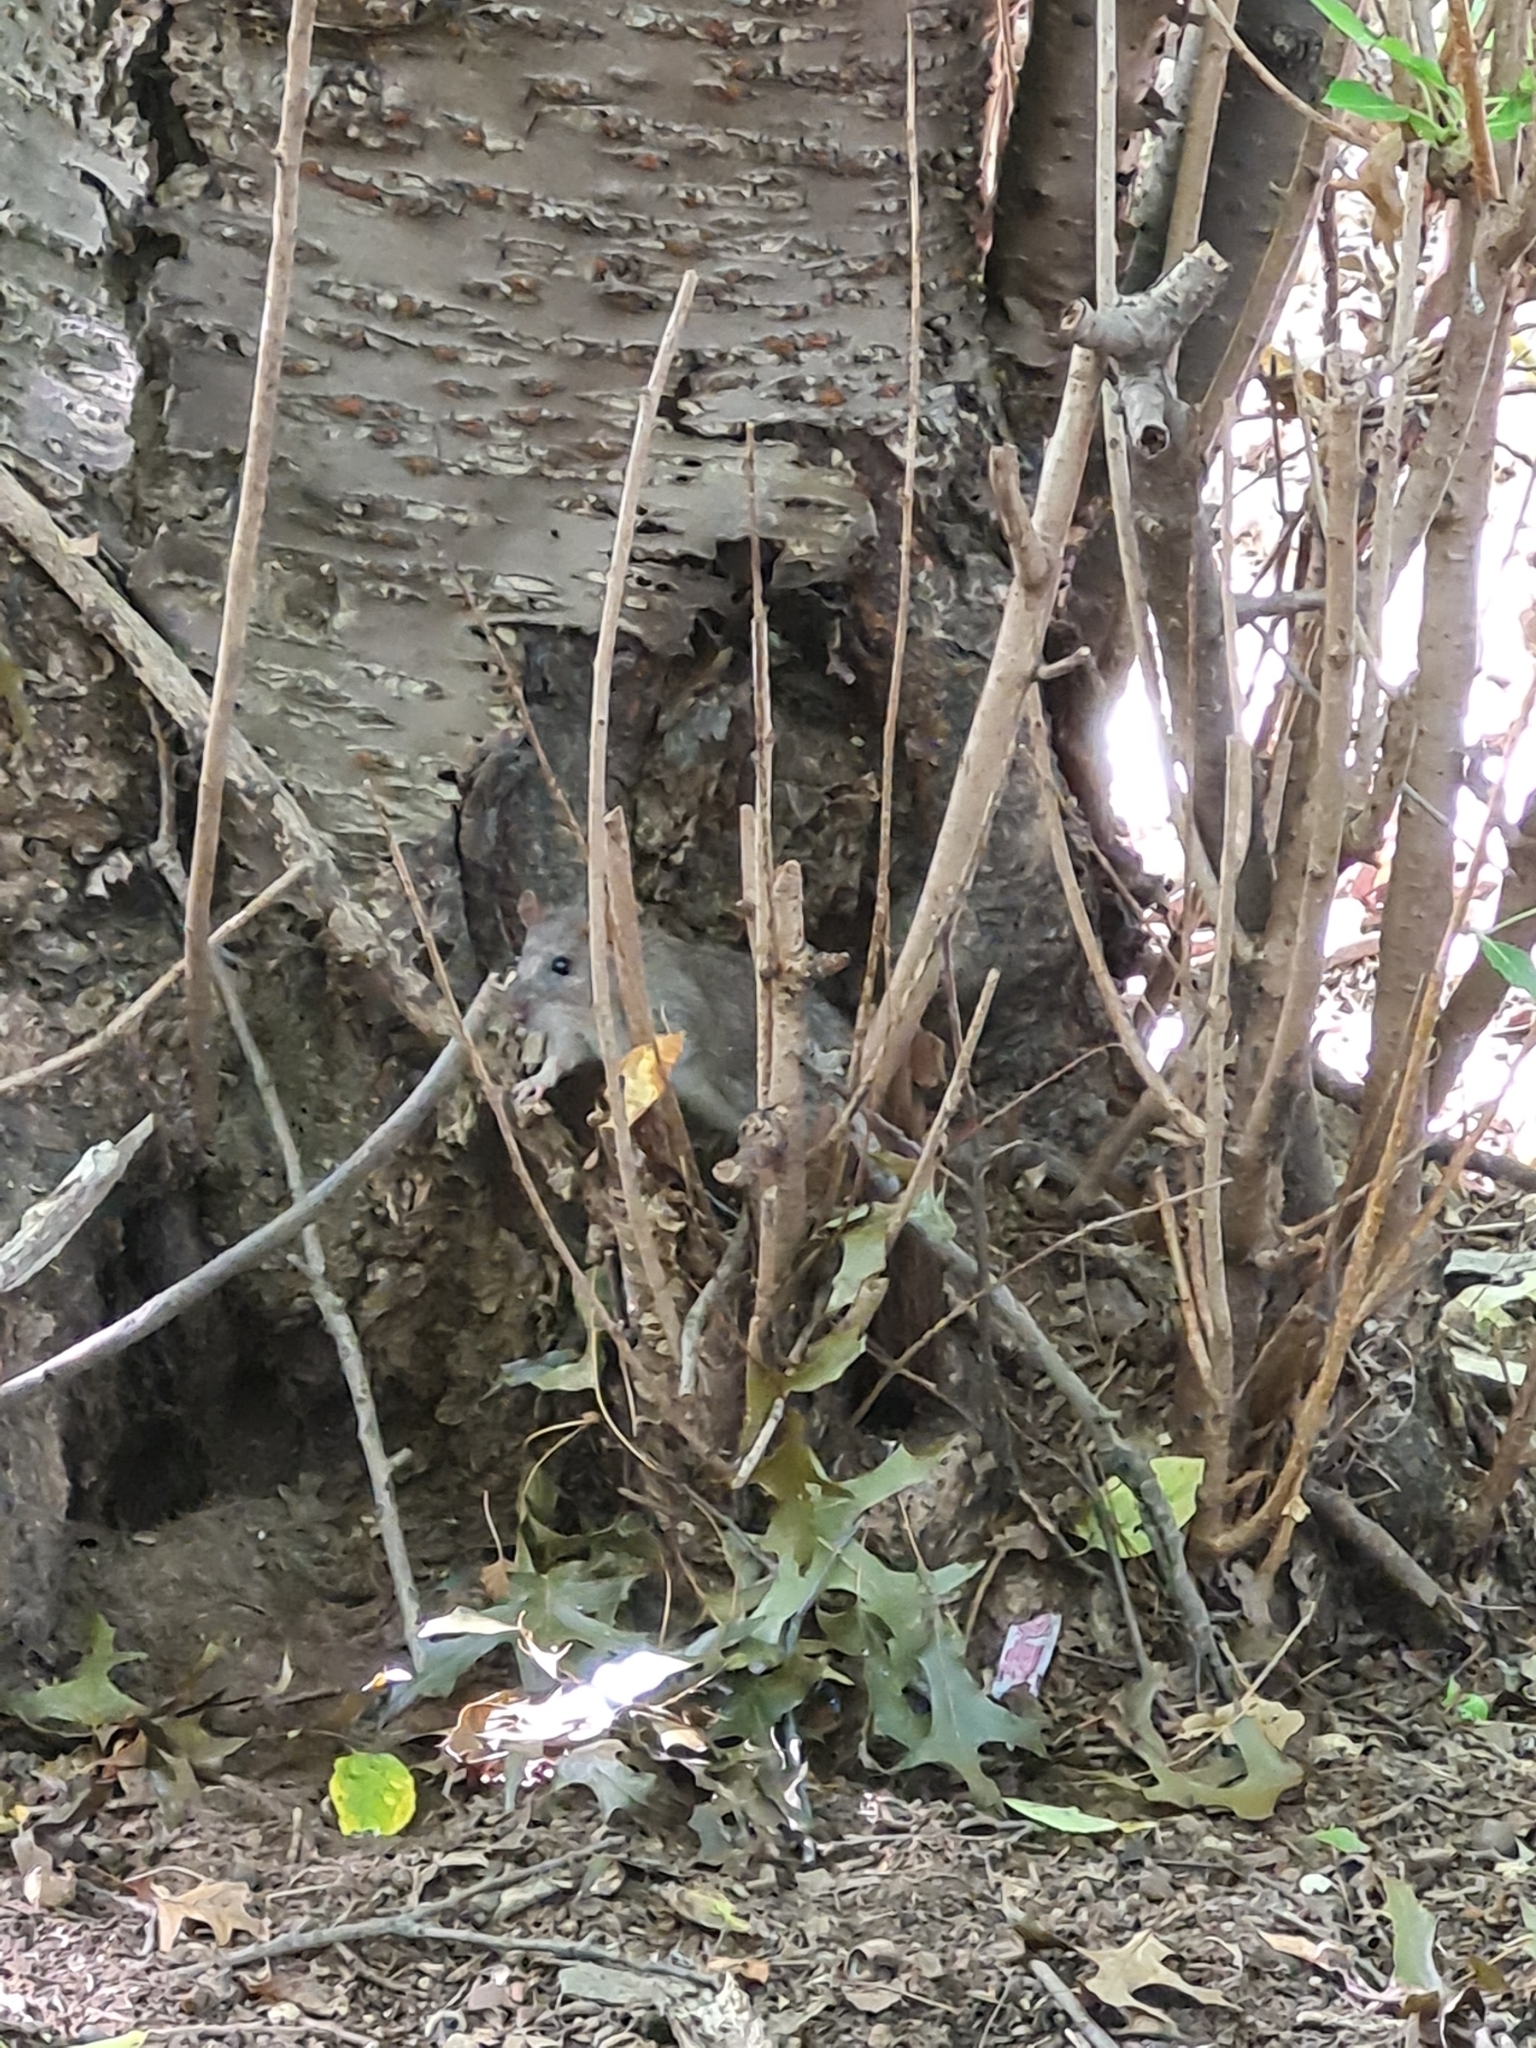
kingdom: Animalia
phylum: Chordata
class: Mammalia
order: Rodentia
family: Muridae
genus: Rattus
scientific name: Rattus norvegicus
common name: Brown rat
